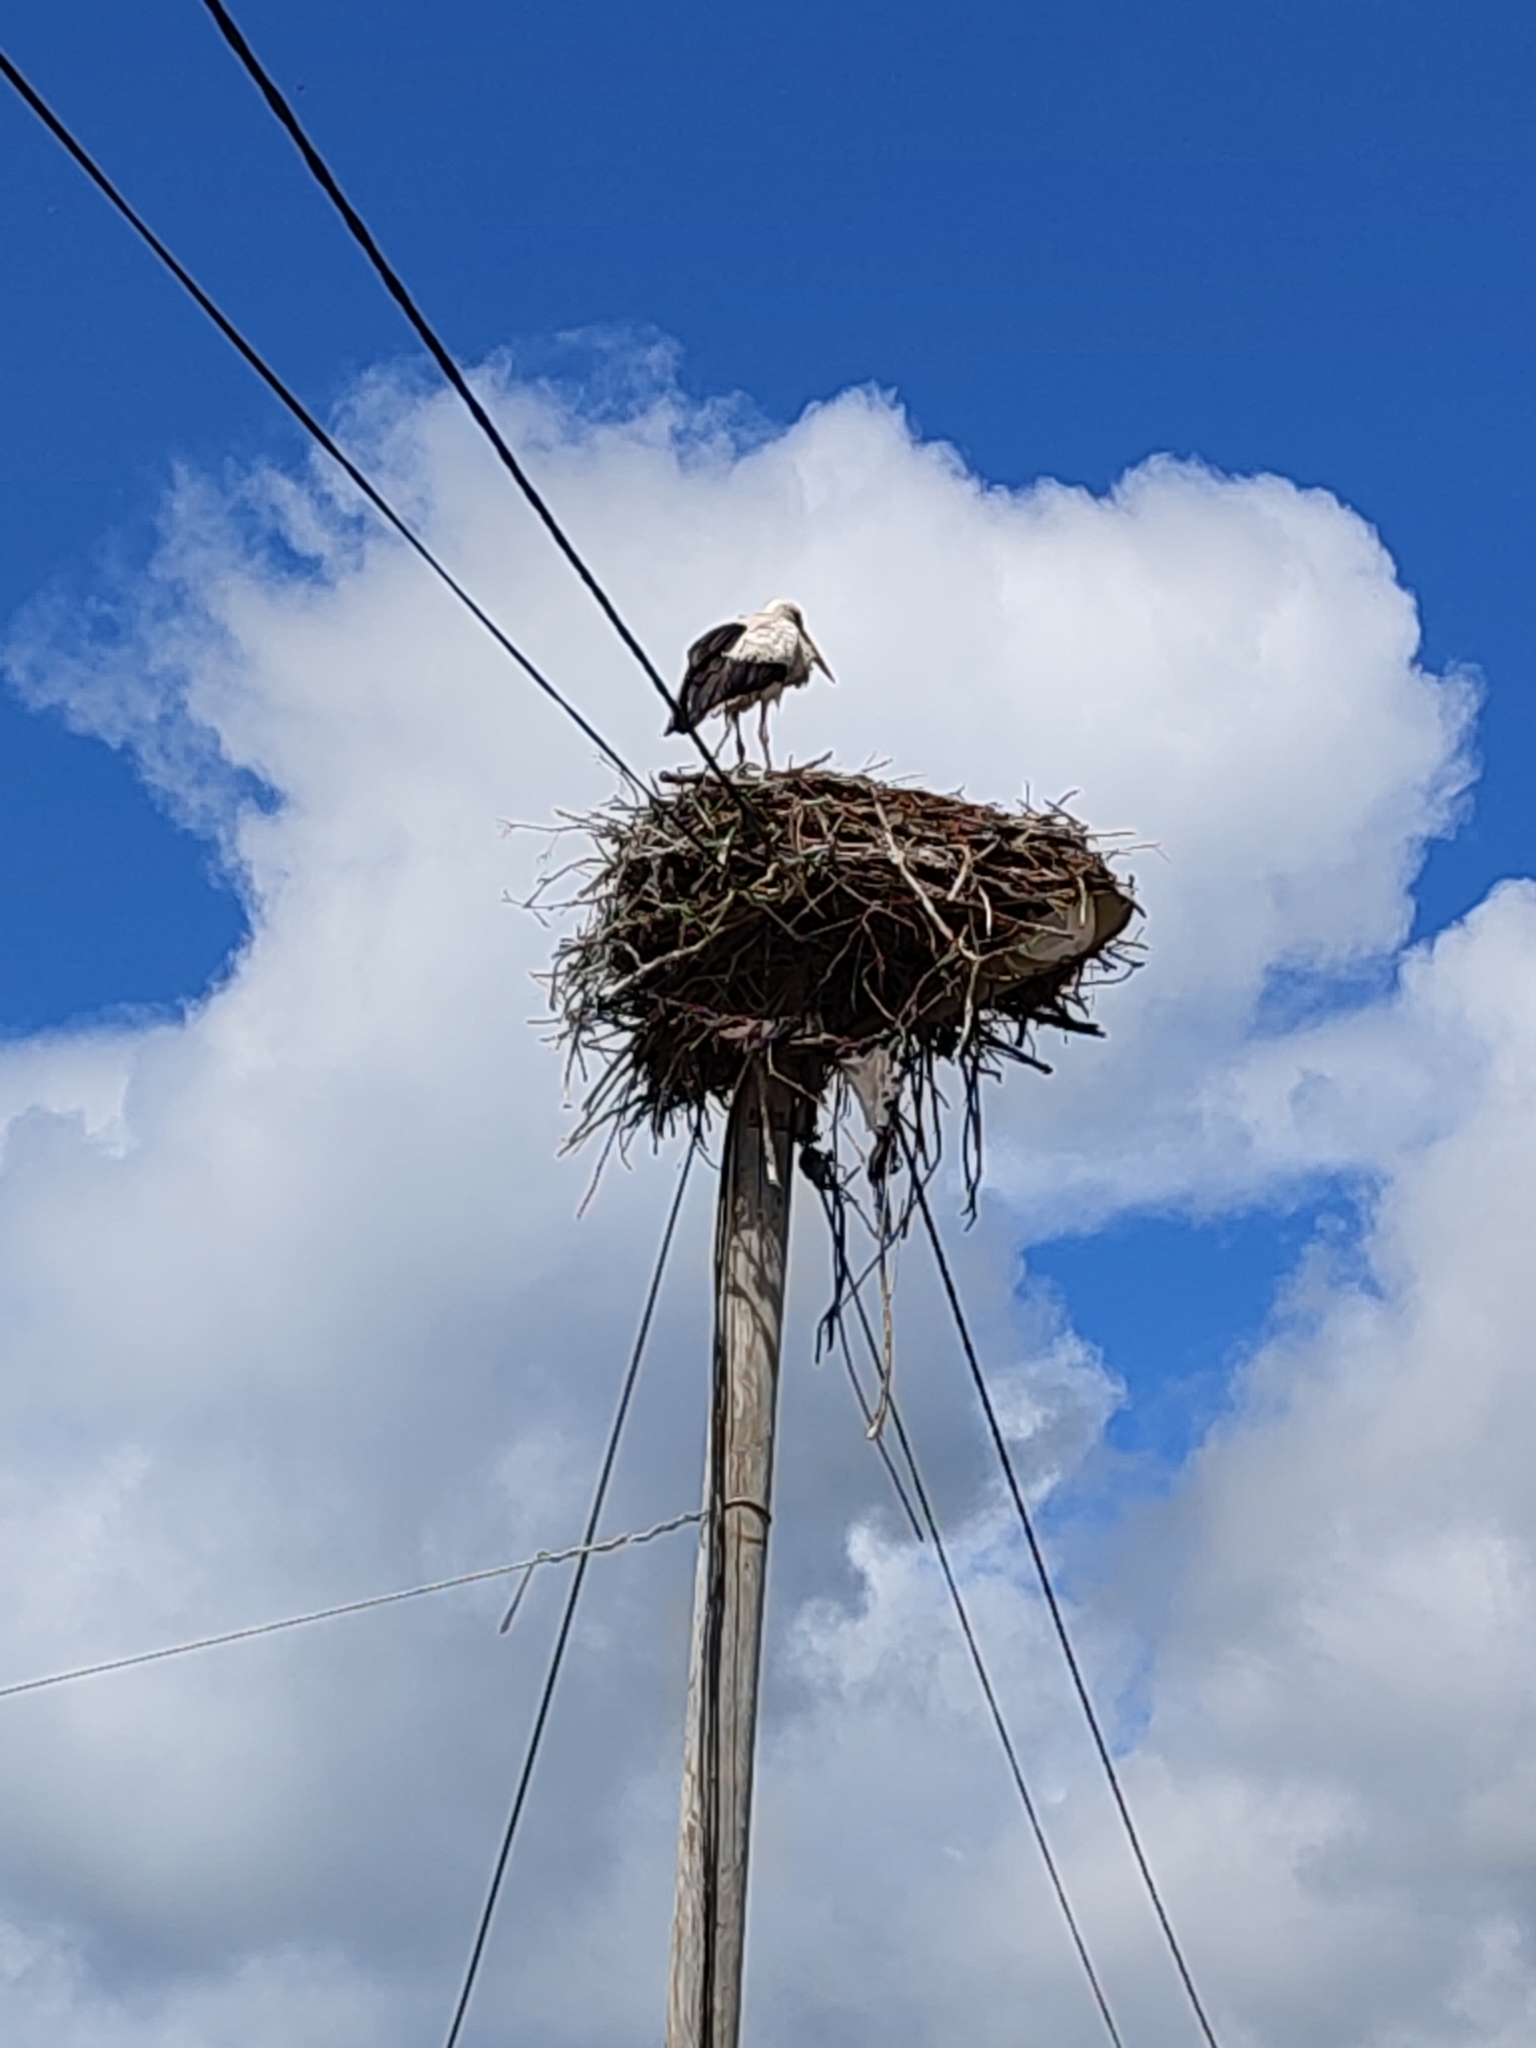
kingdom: Animalia
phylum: Chordata
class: Aves
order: Ciconiiformes
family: Ciconiidae
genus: Ciconia
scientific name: Ciconia ciconia
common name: White stork
